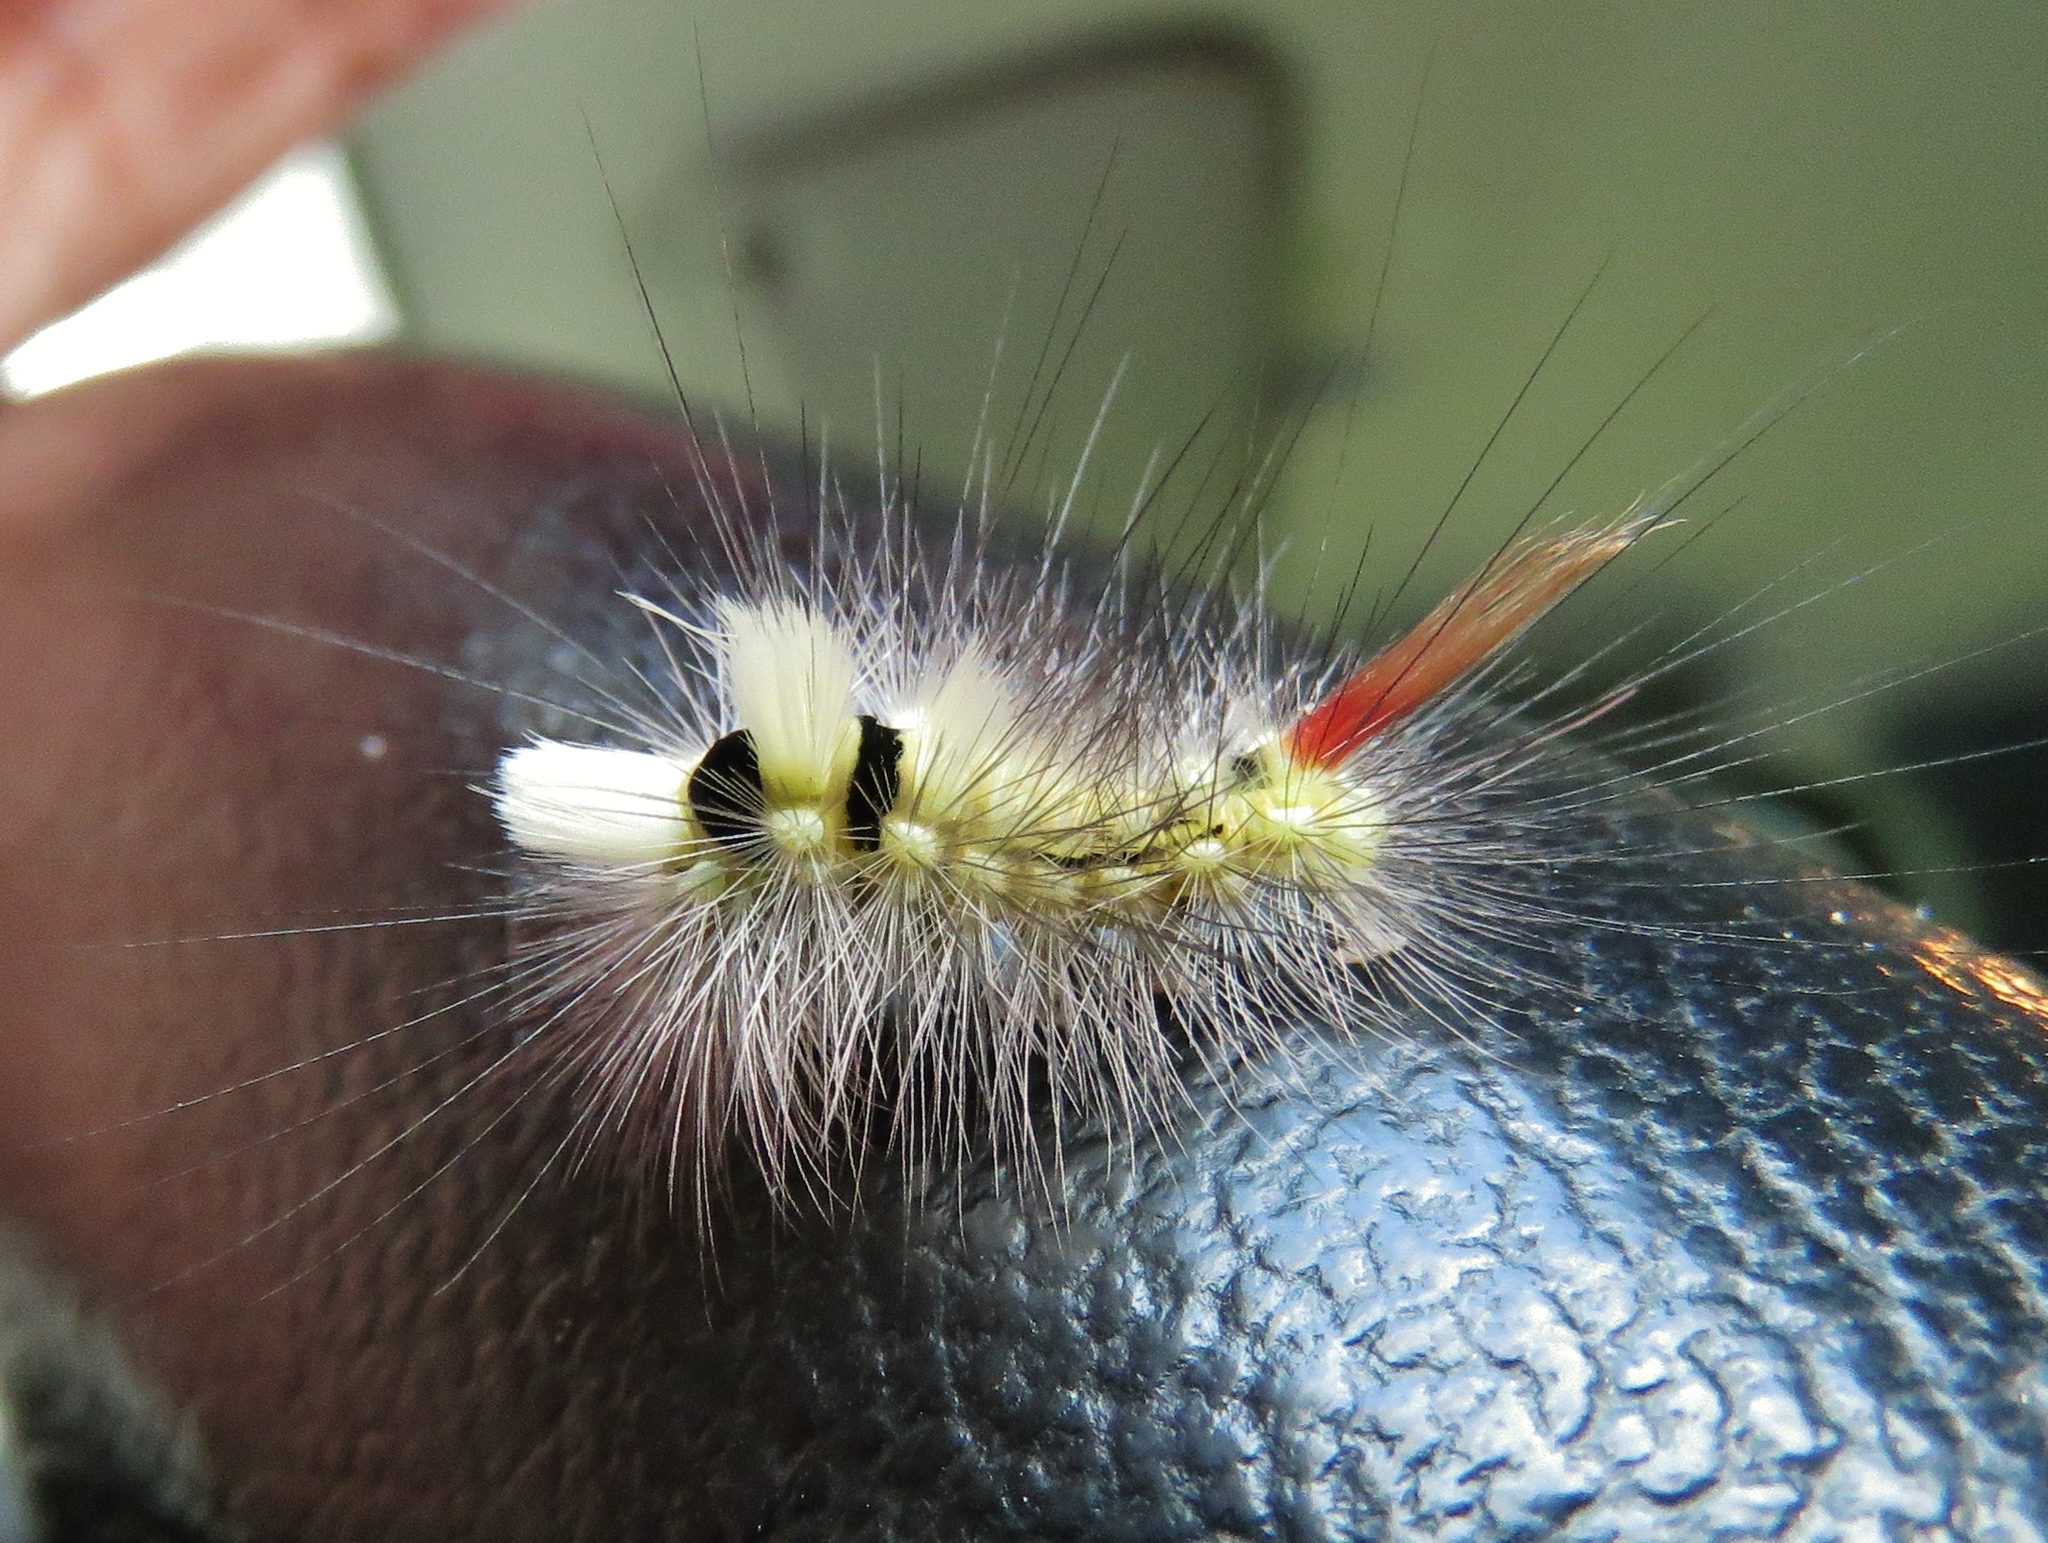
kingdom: Animalia
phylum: Arthropoda
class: Insecta
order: Lepidoptera
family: Erebidae
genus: Calliteara
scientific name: Calliteara pudibunda
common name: Pale tussock
